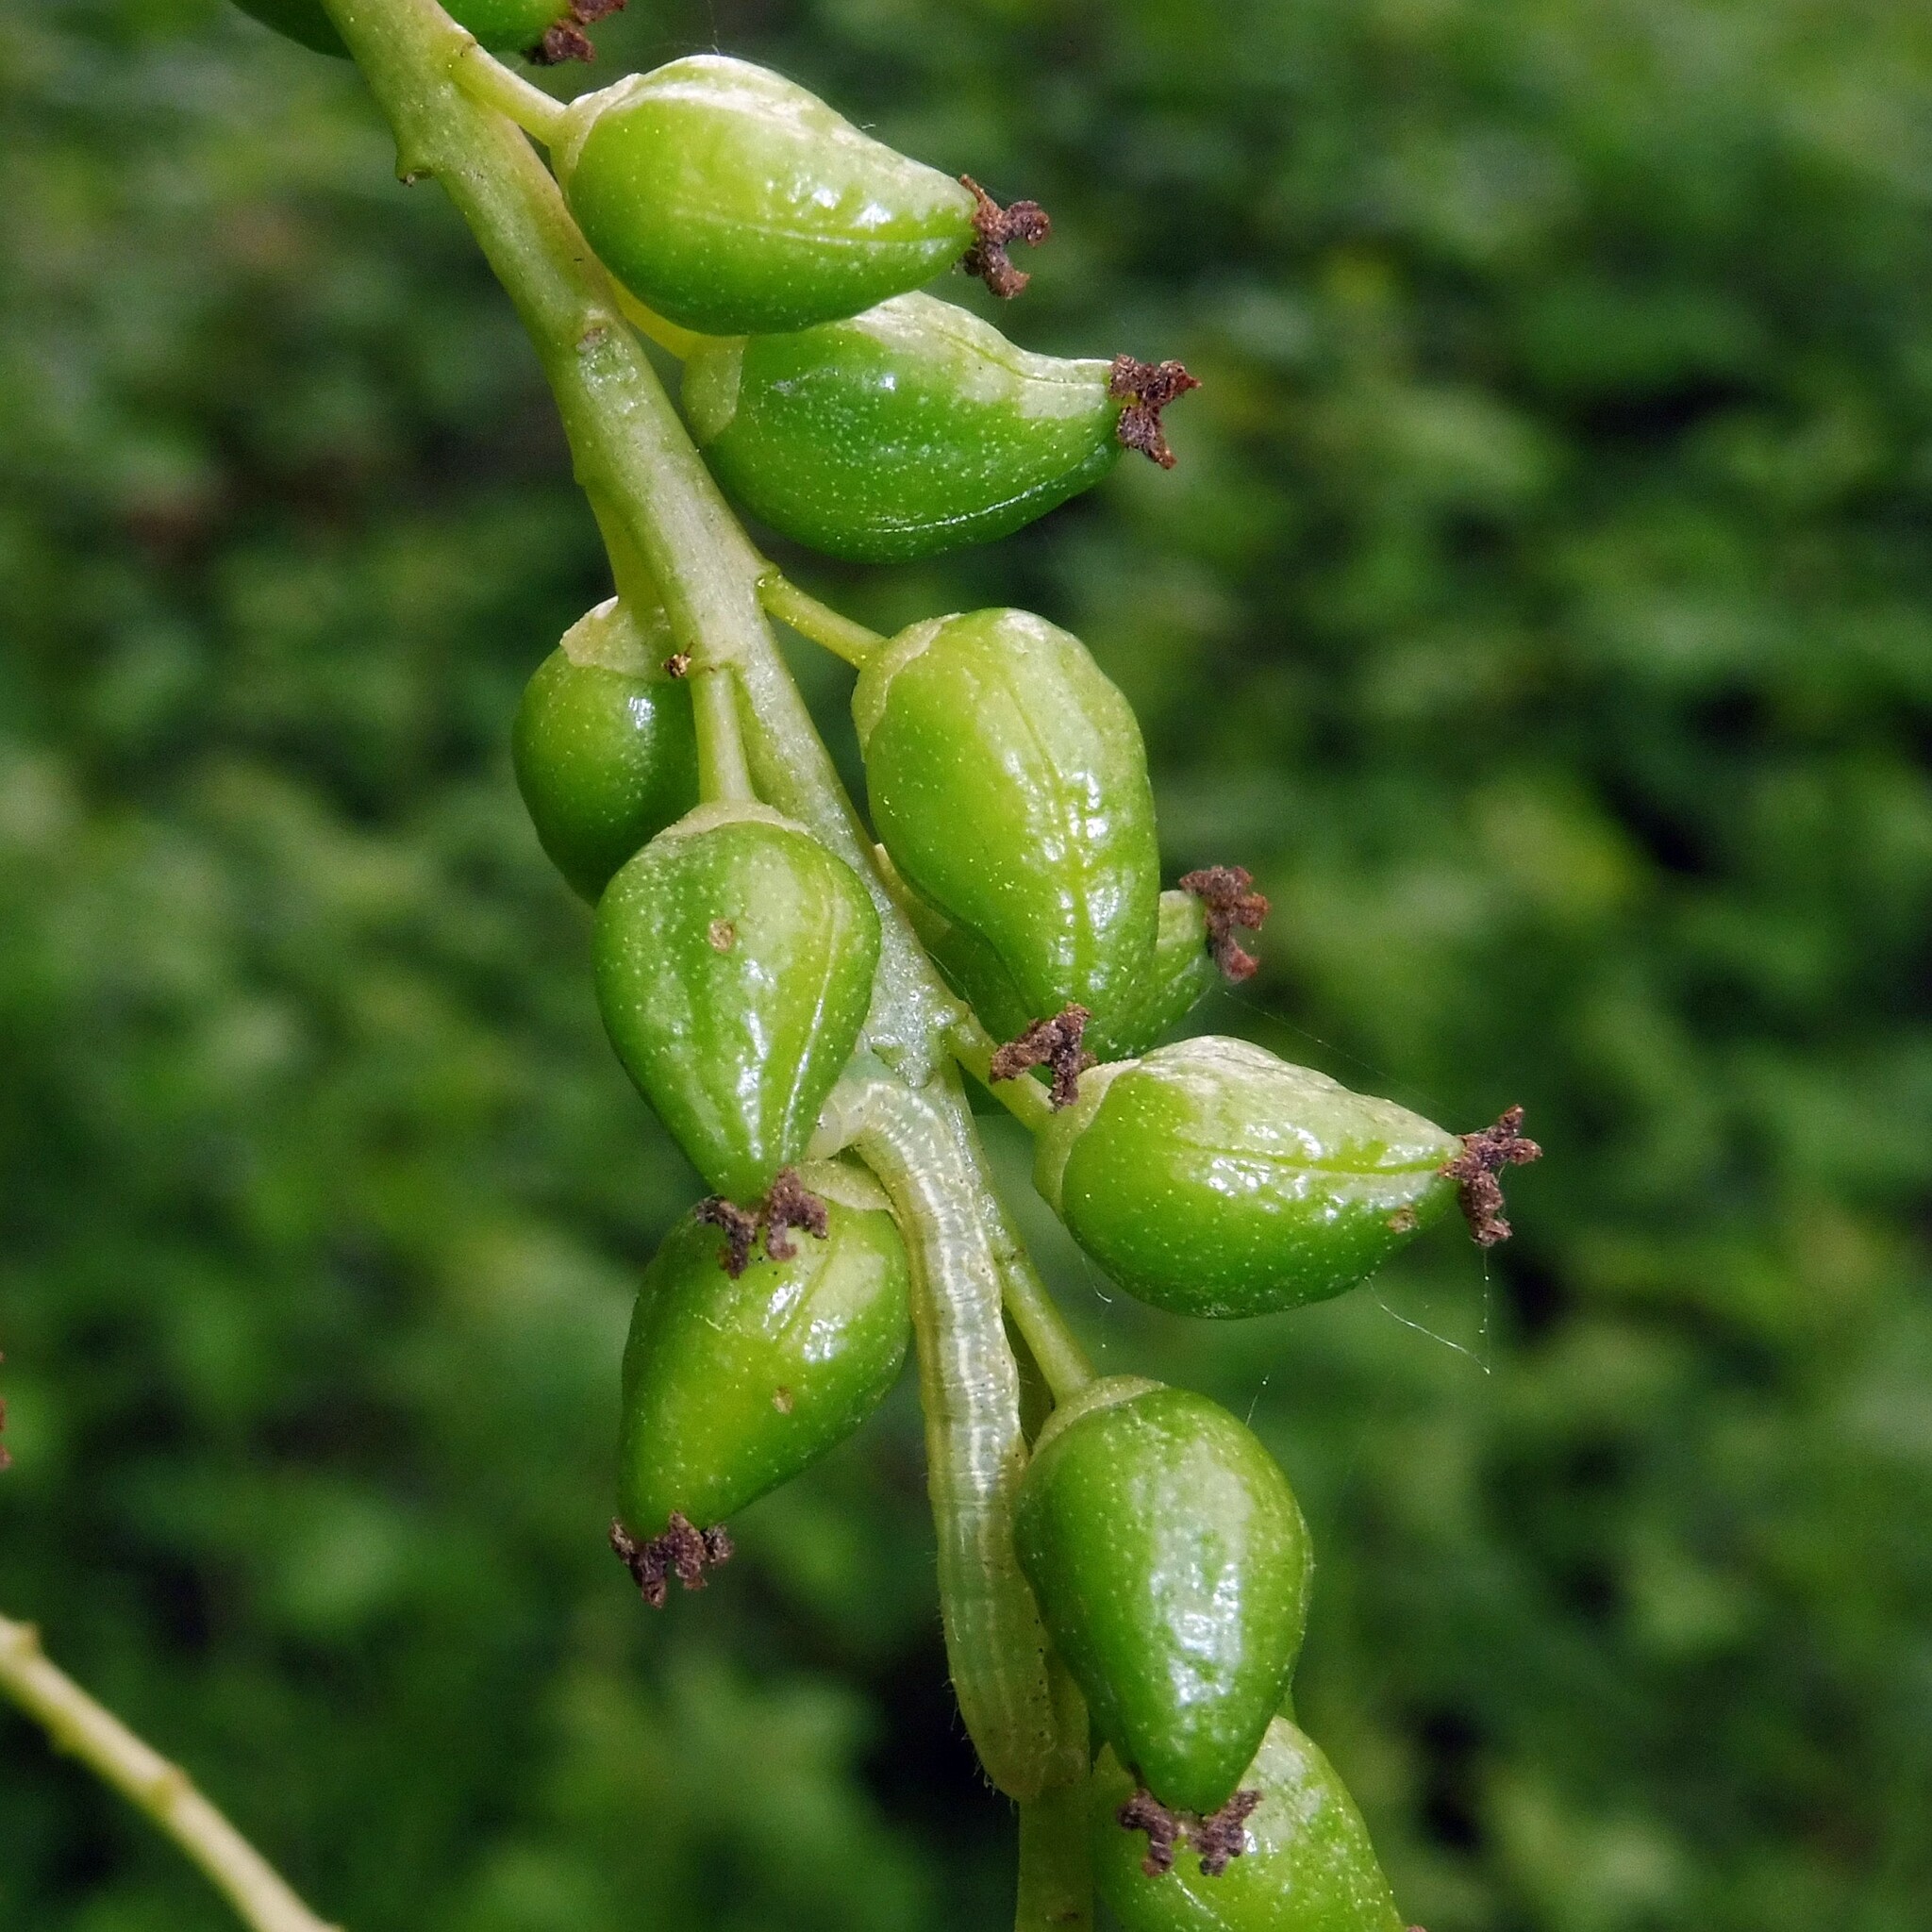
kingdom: Plantae
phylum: Tracheophyta
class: Magnoliopsida
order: Malpighiales
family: Salicaceae
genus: Populus
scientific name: Populus canadensis
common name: Carolina poplar
